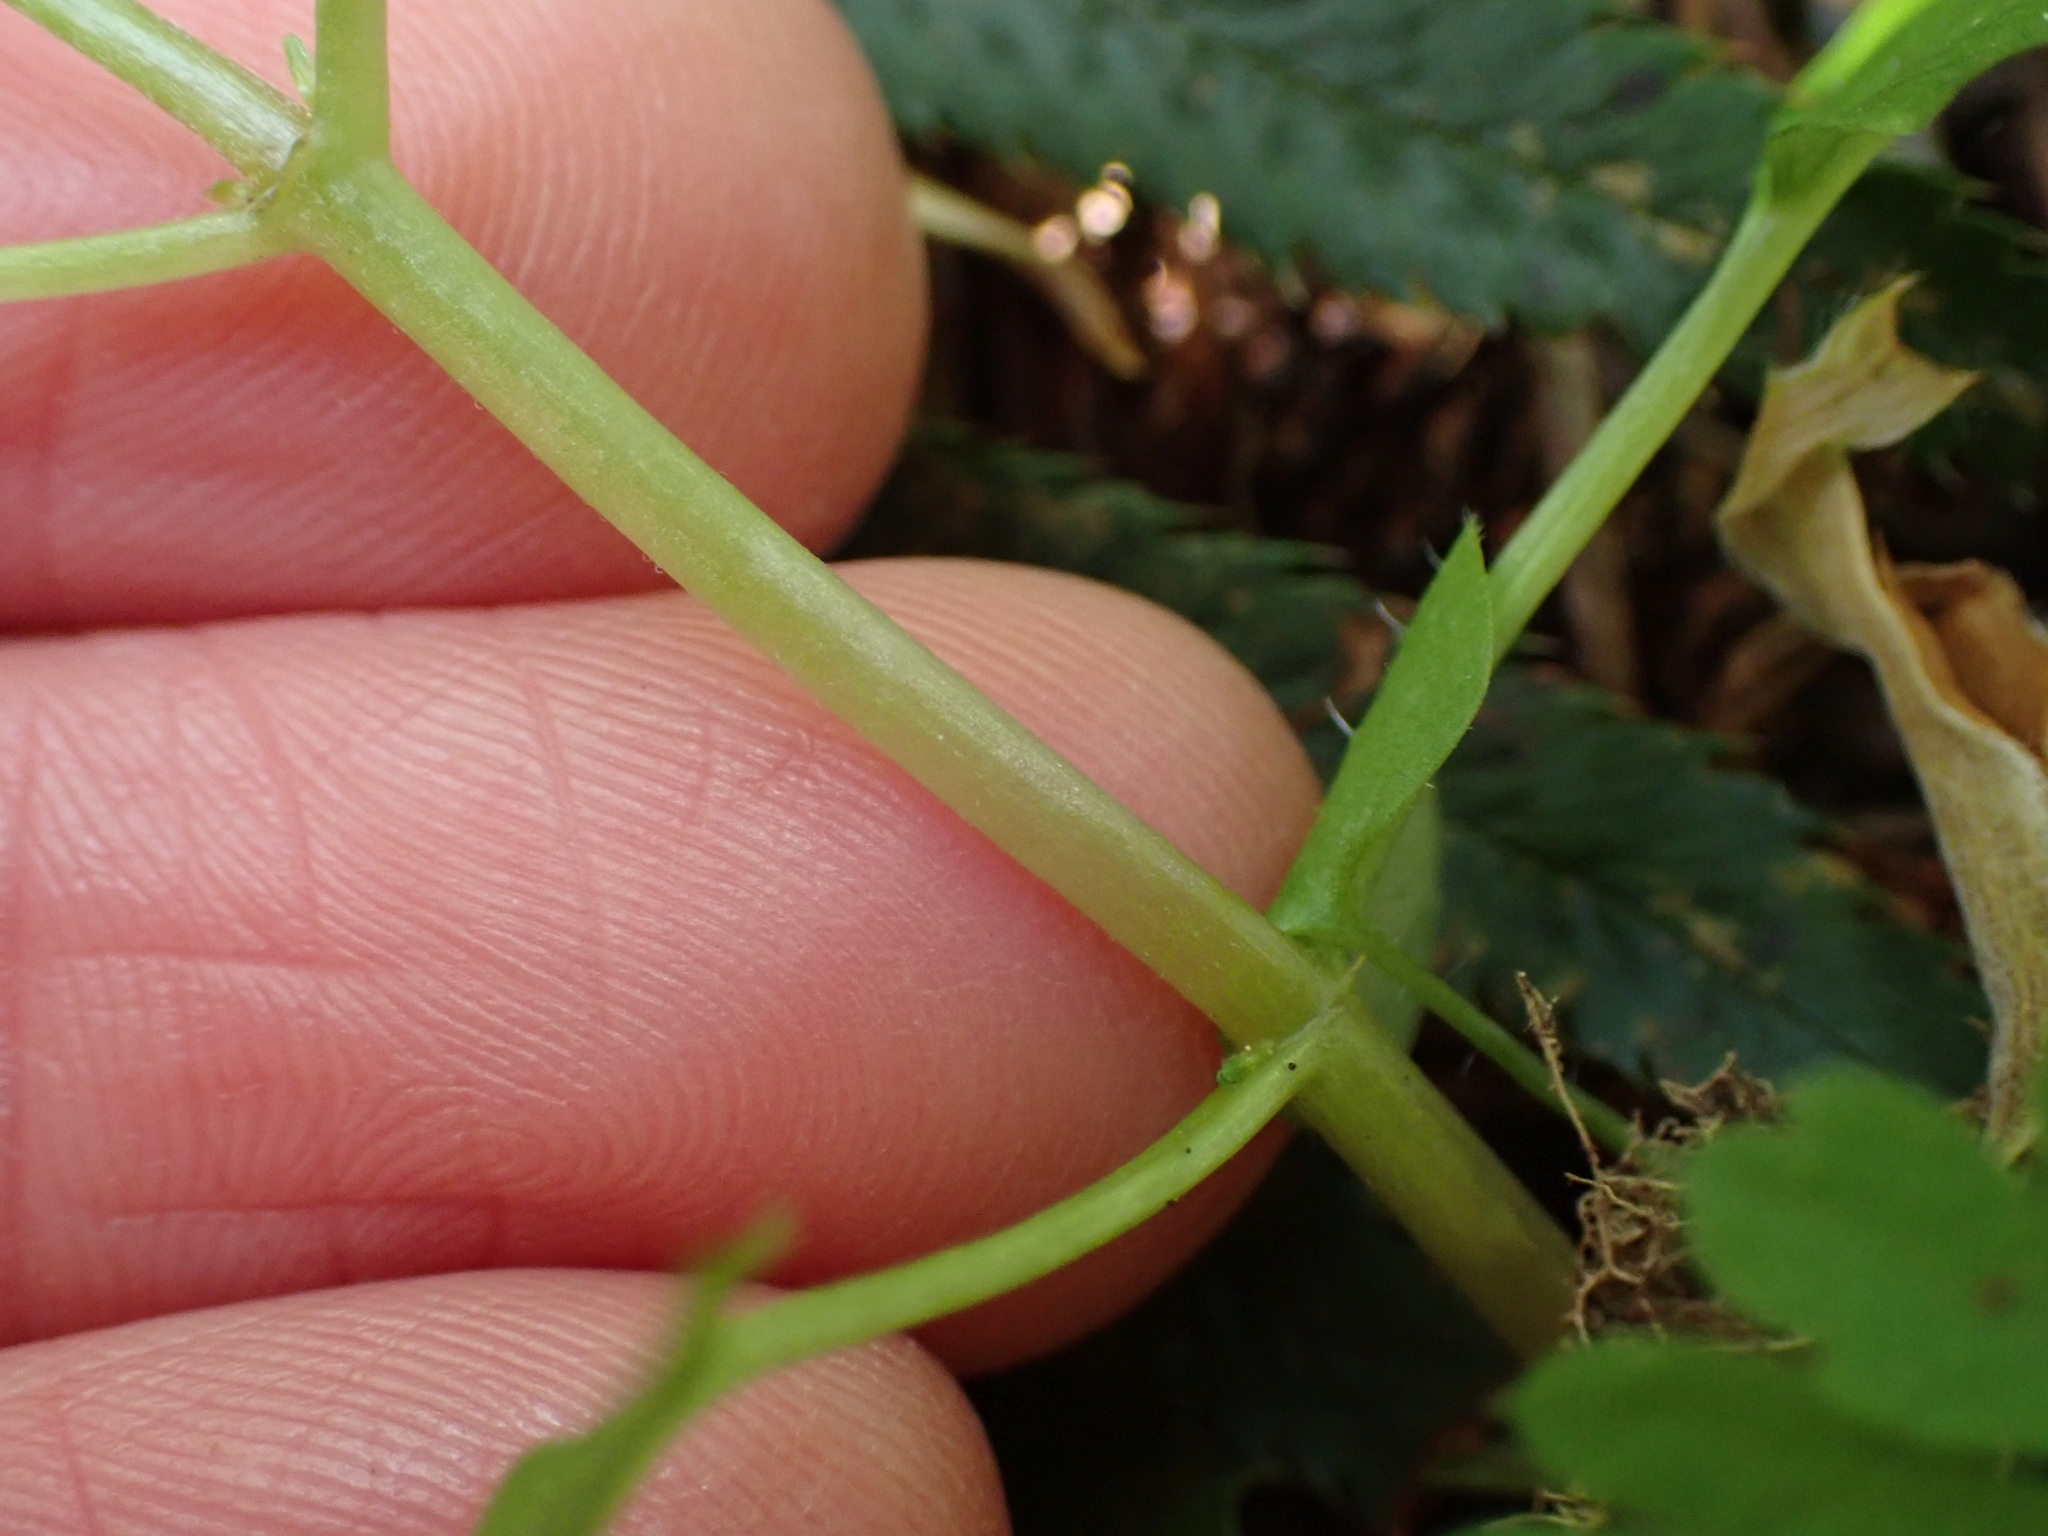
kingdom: Plantae
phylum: Tracheophyta
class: Magnoliopsida
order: Myrtales
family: Onagraceae
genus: Circaea
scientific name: Circaea alpina
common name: Alpine enchanter's-nightshade
